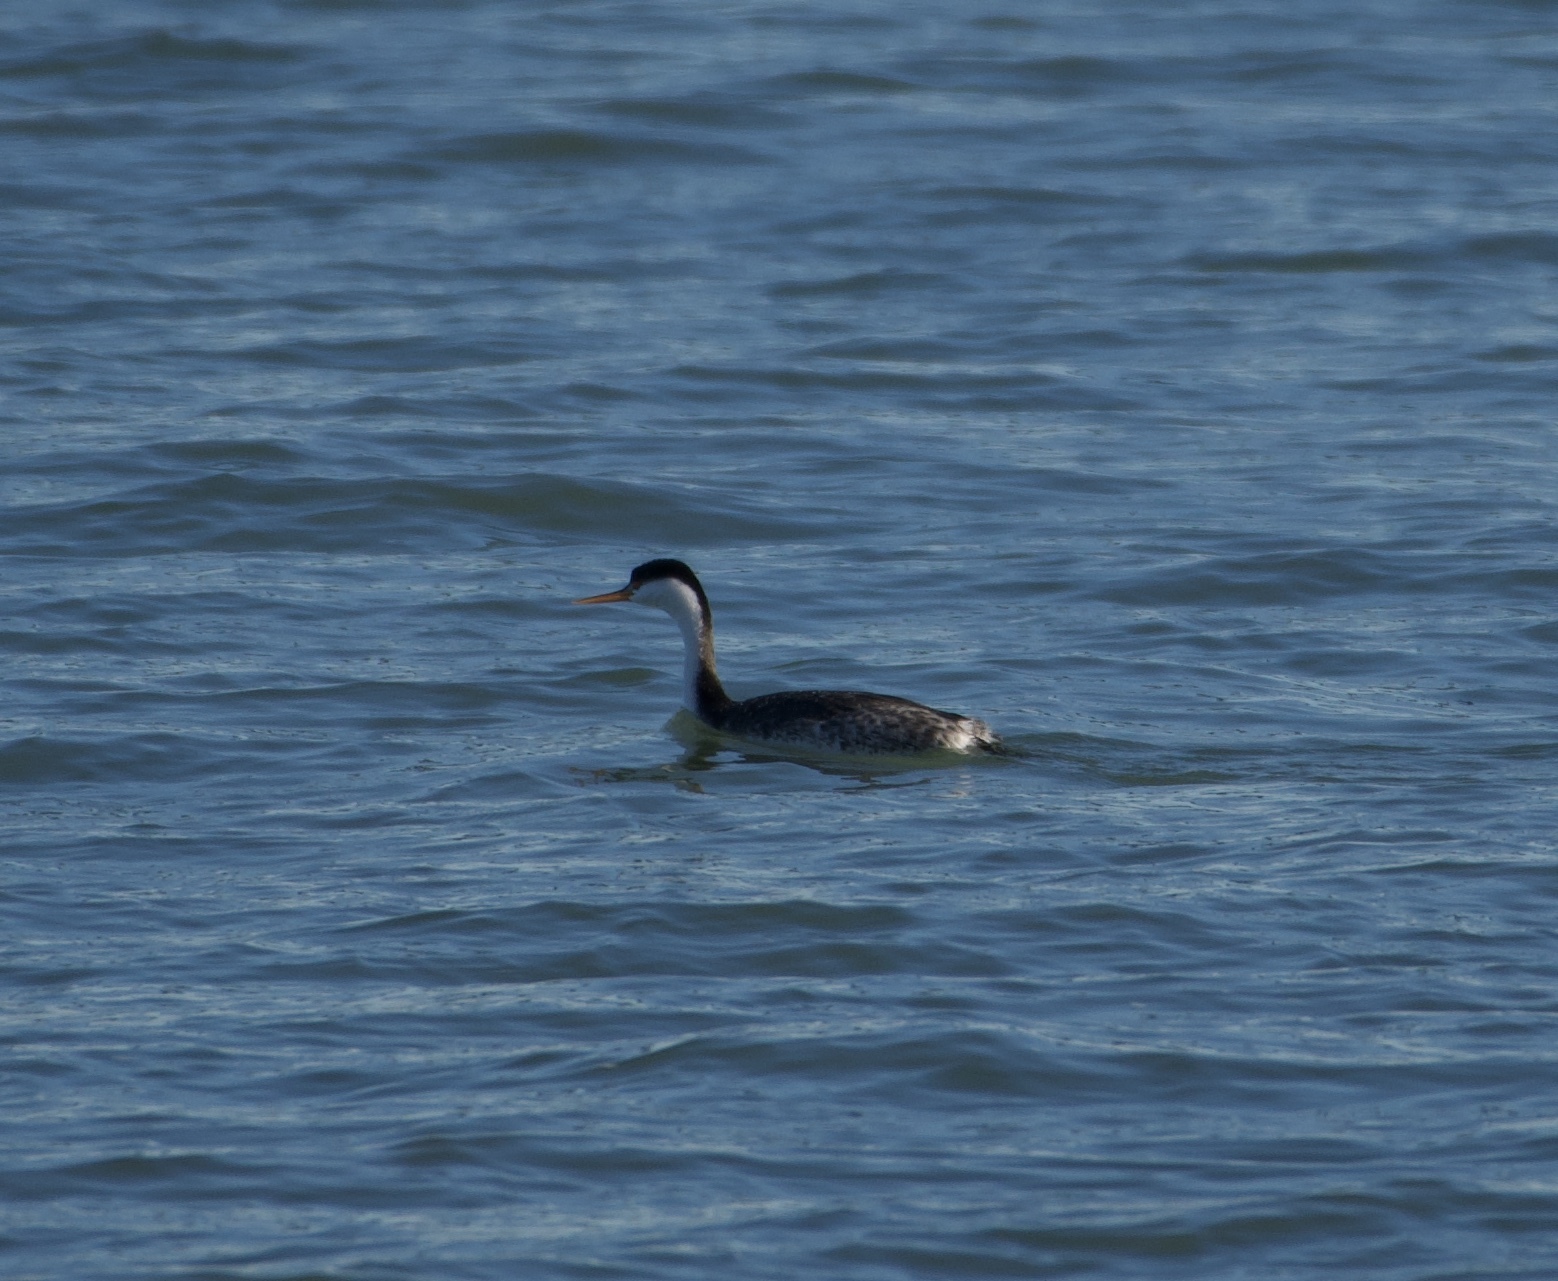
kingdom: Animalia
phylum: Chordata
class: Aves
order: Podicipediformes
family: Podicipedidae
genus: Aechmophorus
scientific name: Aechmophorus clarkii
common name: Clark's grebe
